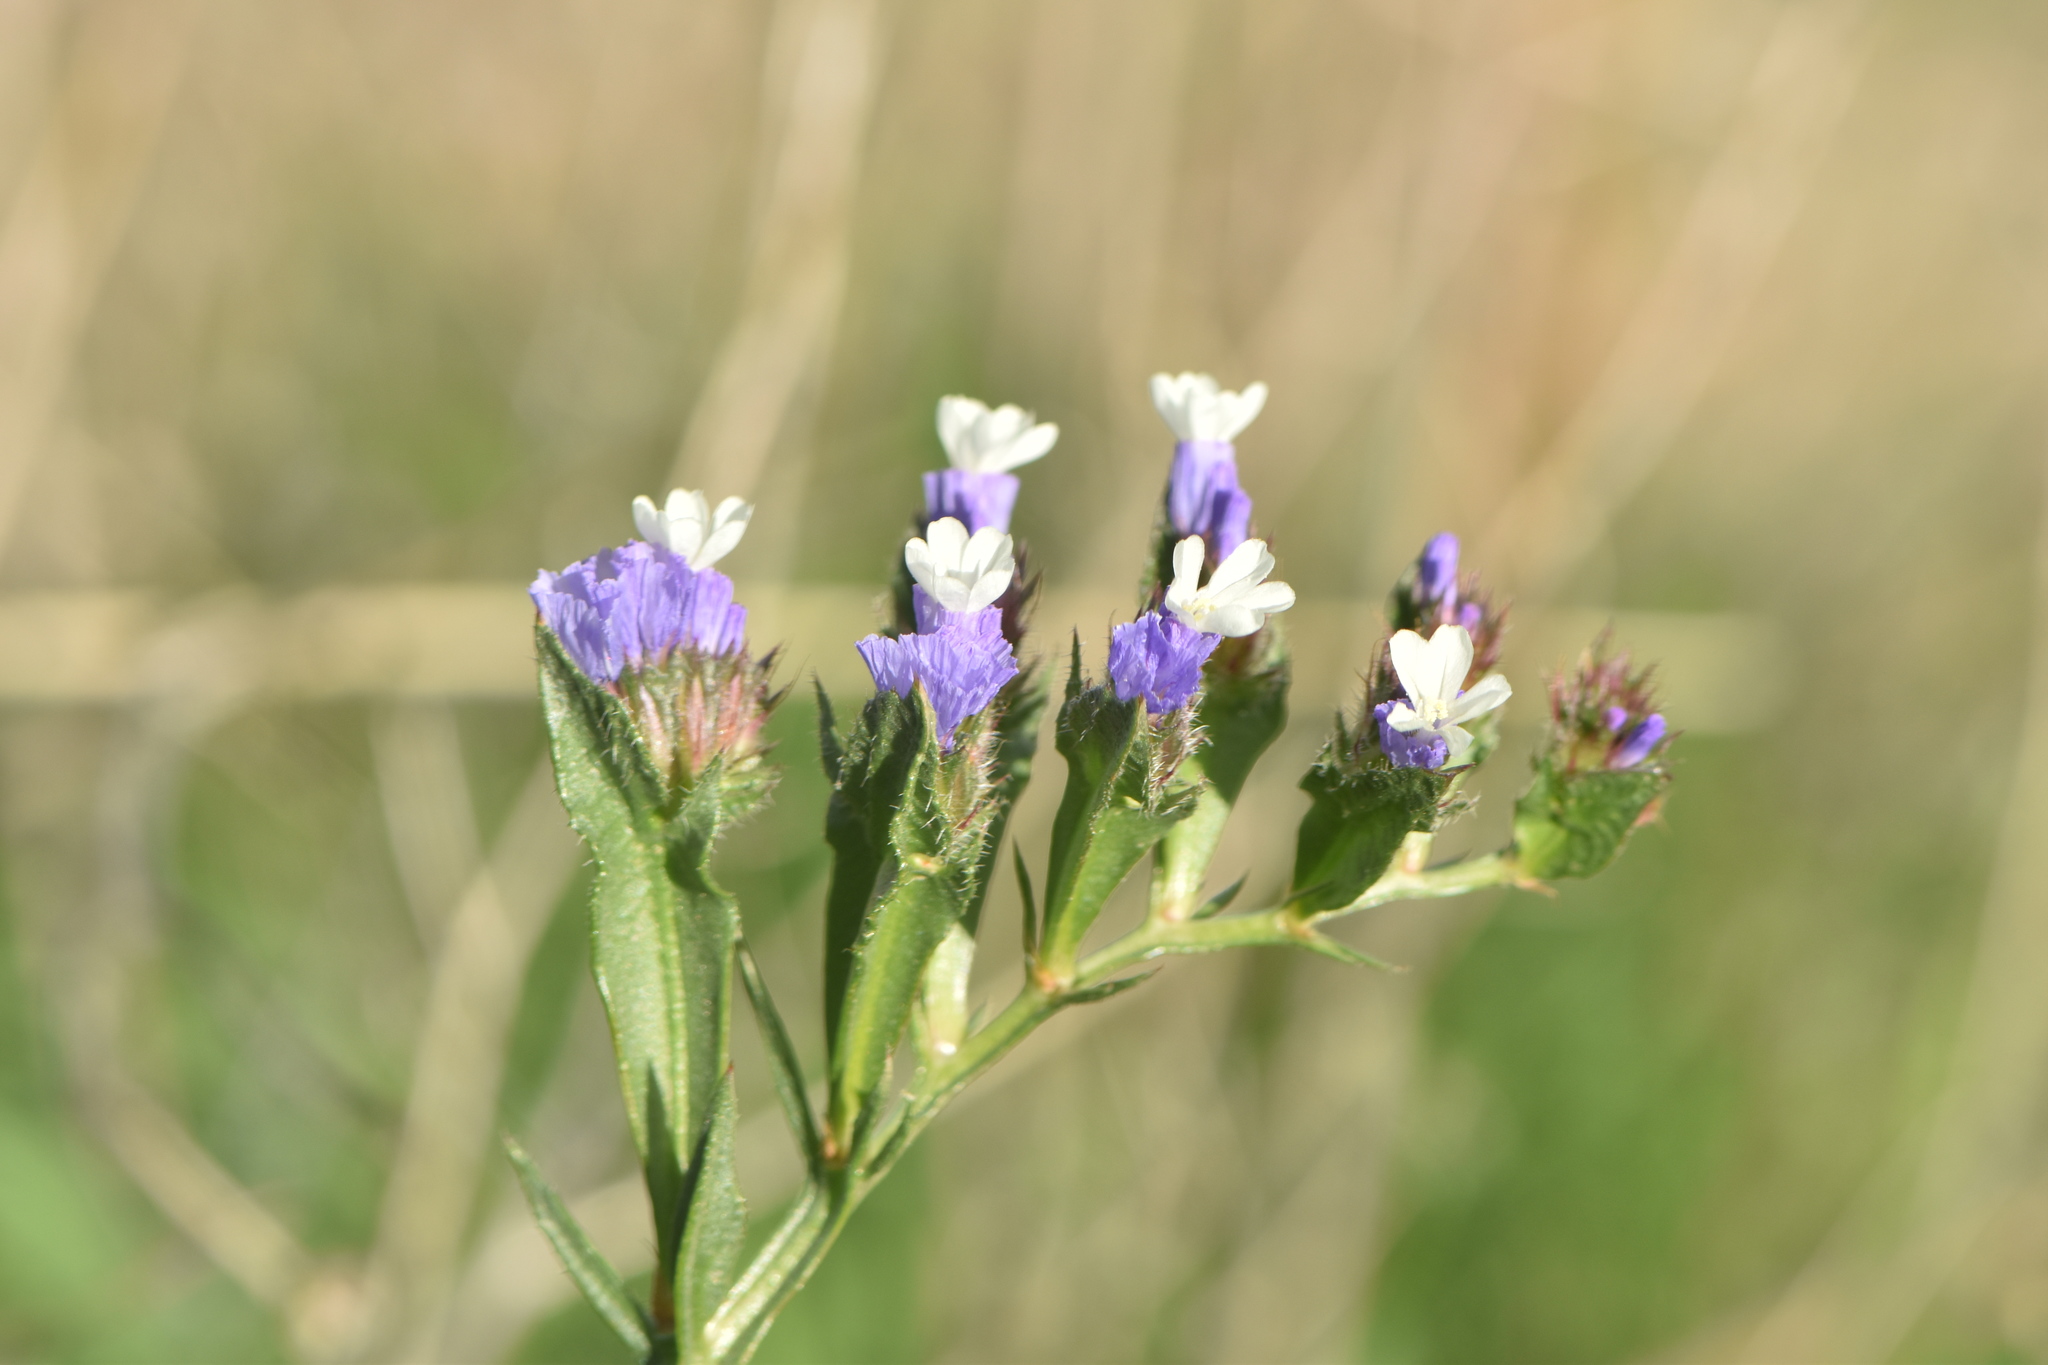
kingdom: Plantae
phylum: Tracheophyta
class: Magnoliopsida
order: Caryophyllales
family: Plumbaginaceae
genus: Limonium
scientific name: Limonium sinuatum
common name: Statice
